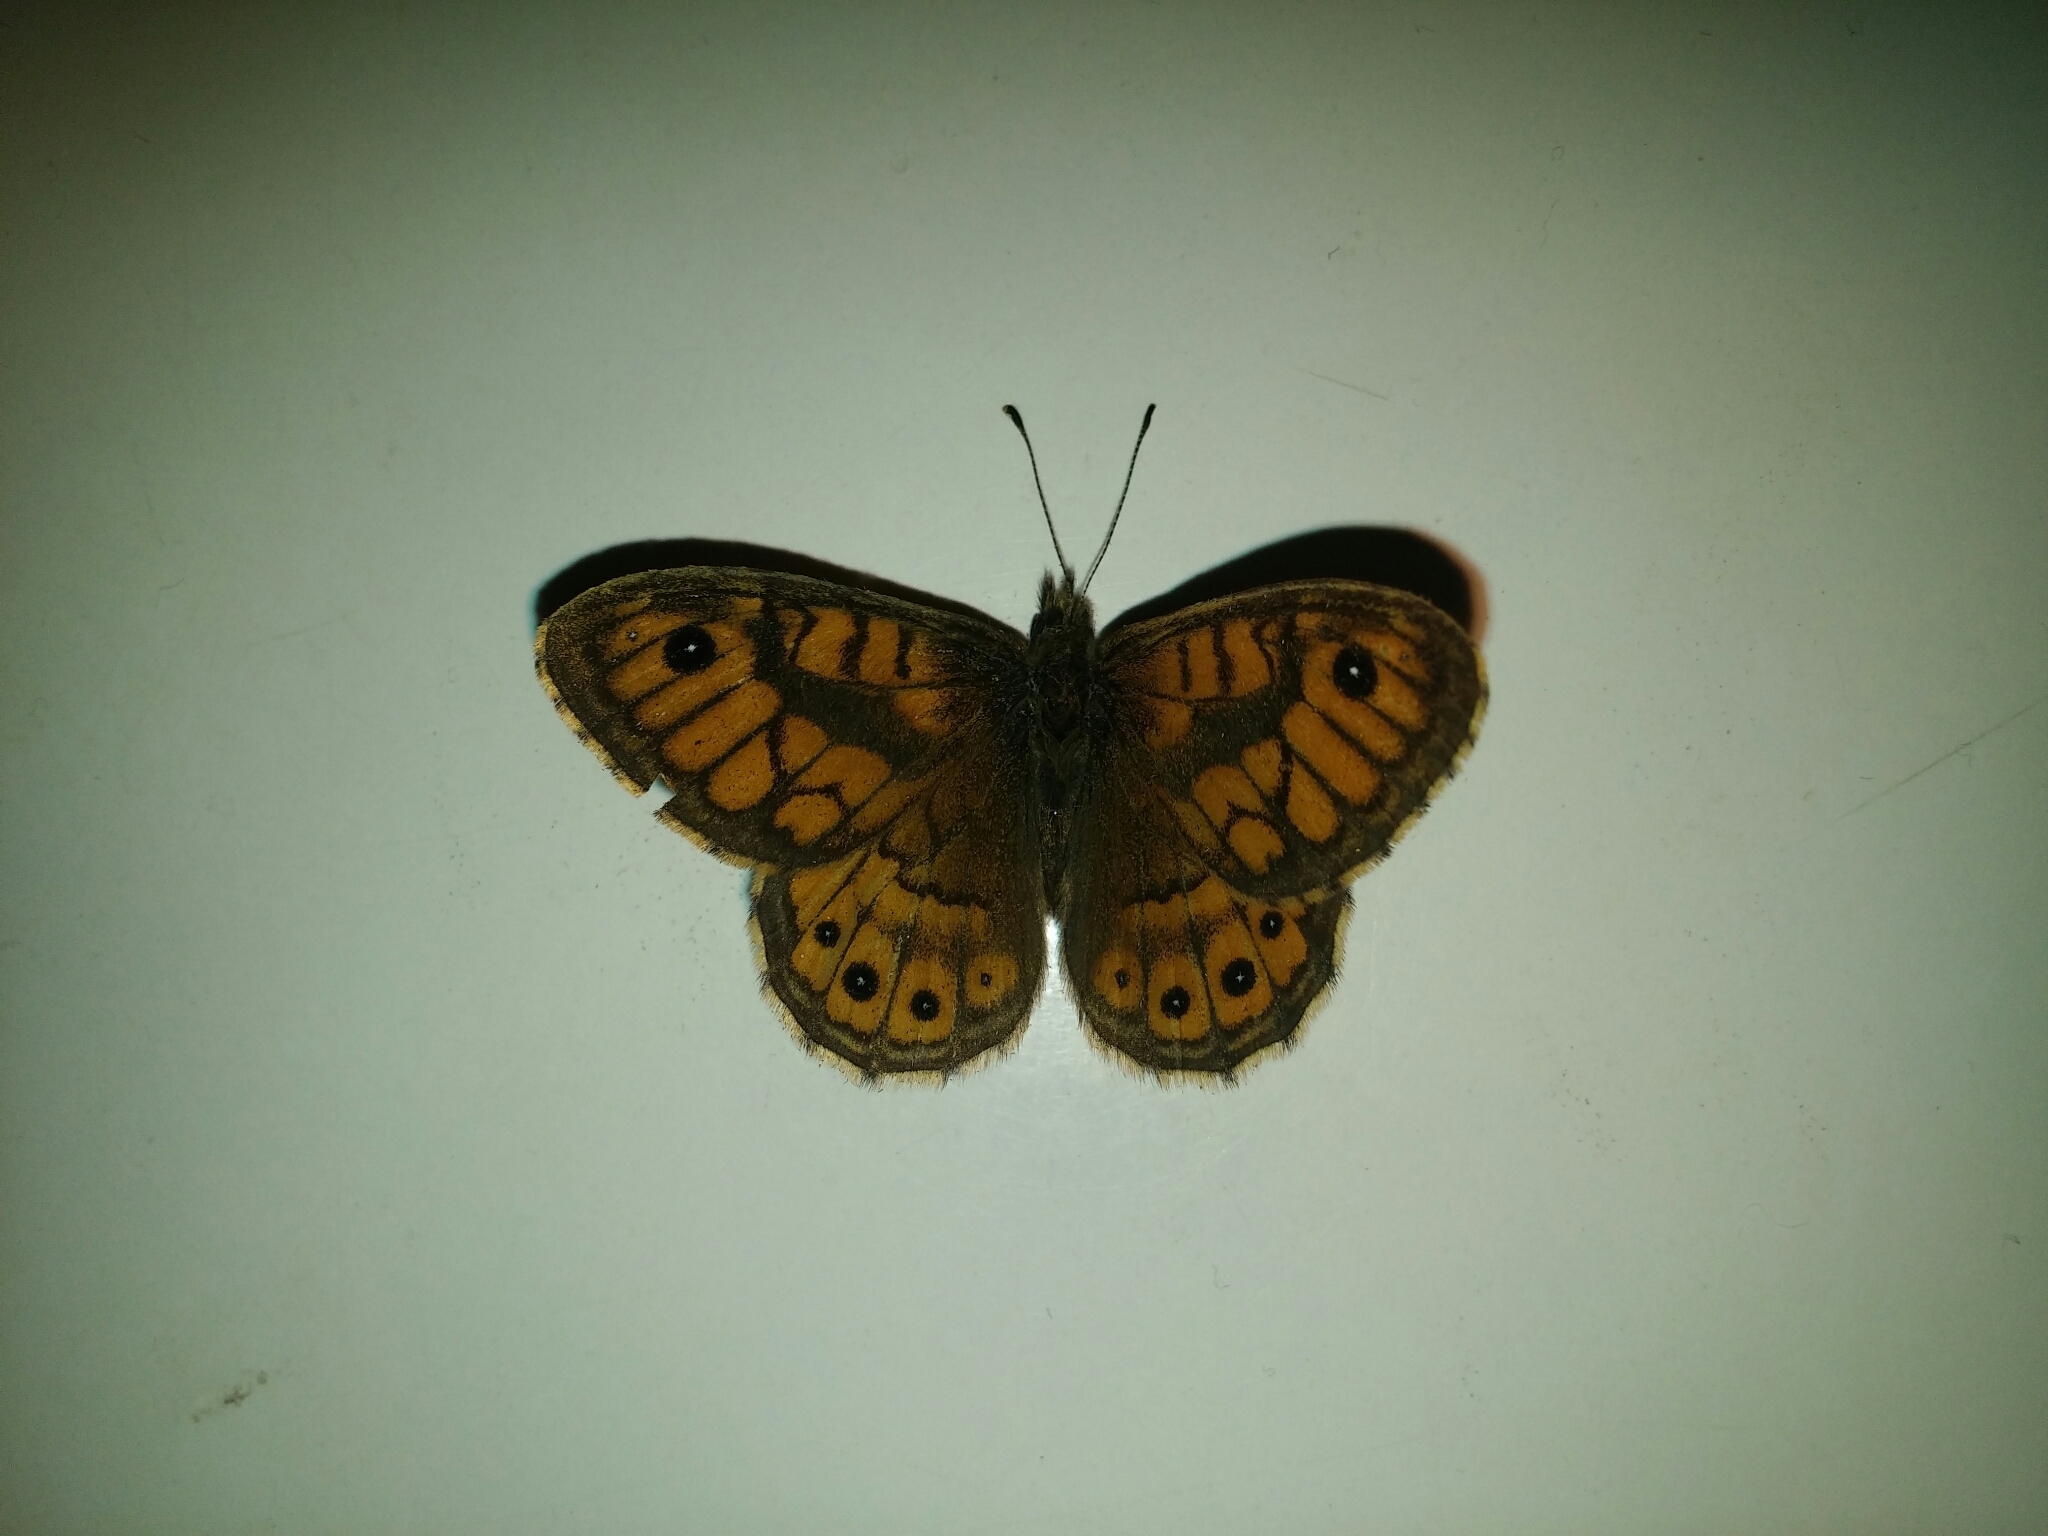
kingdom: Animalia
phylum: Arthropoda
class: Insecta
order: Lepidoptera
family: Nymphalidae
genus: Pararge
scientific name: Pararge Lasiommata megera
